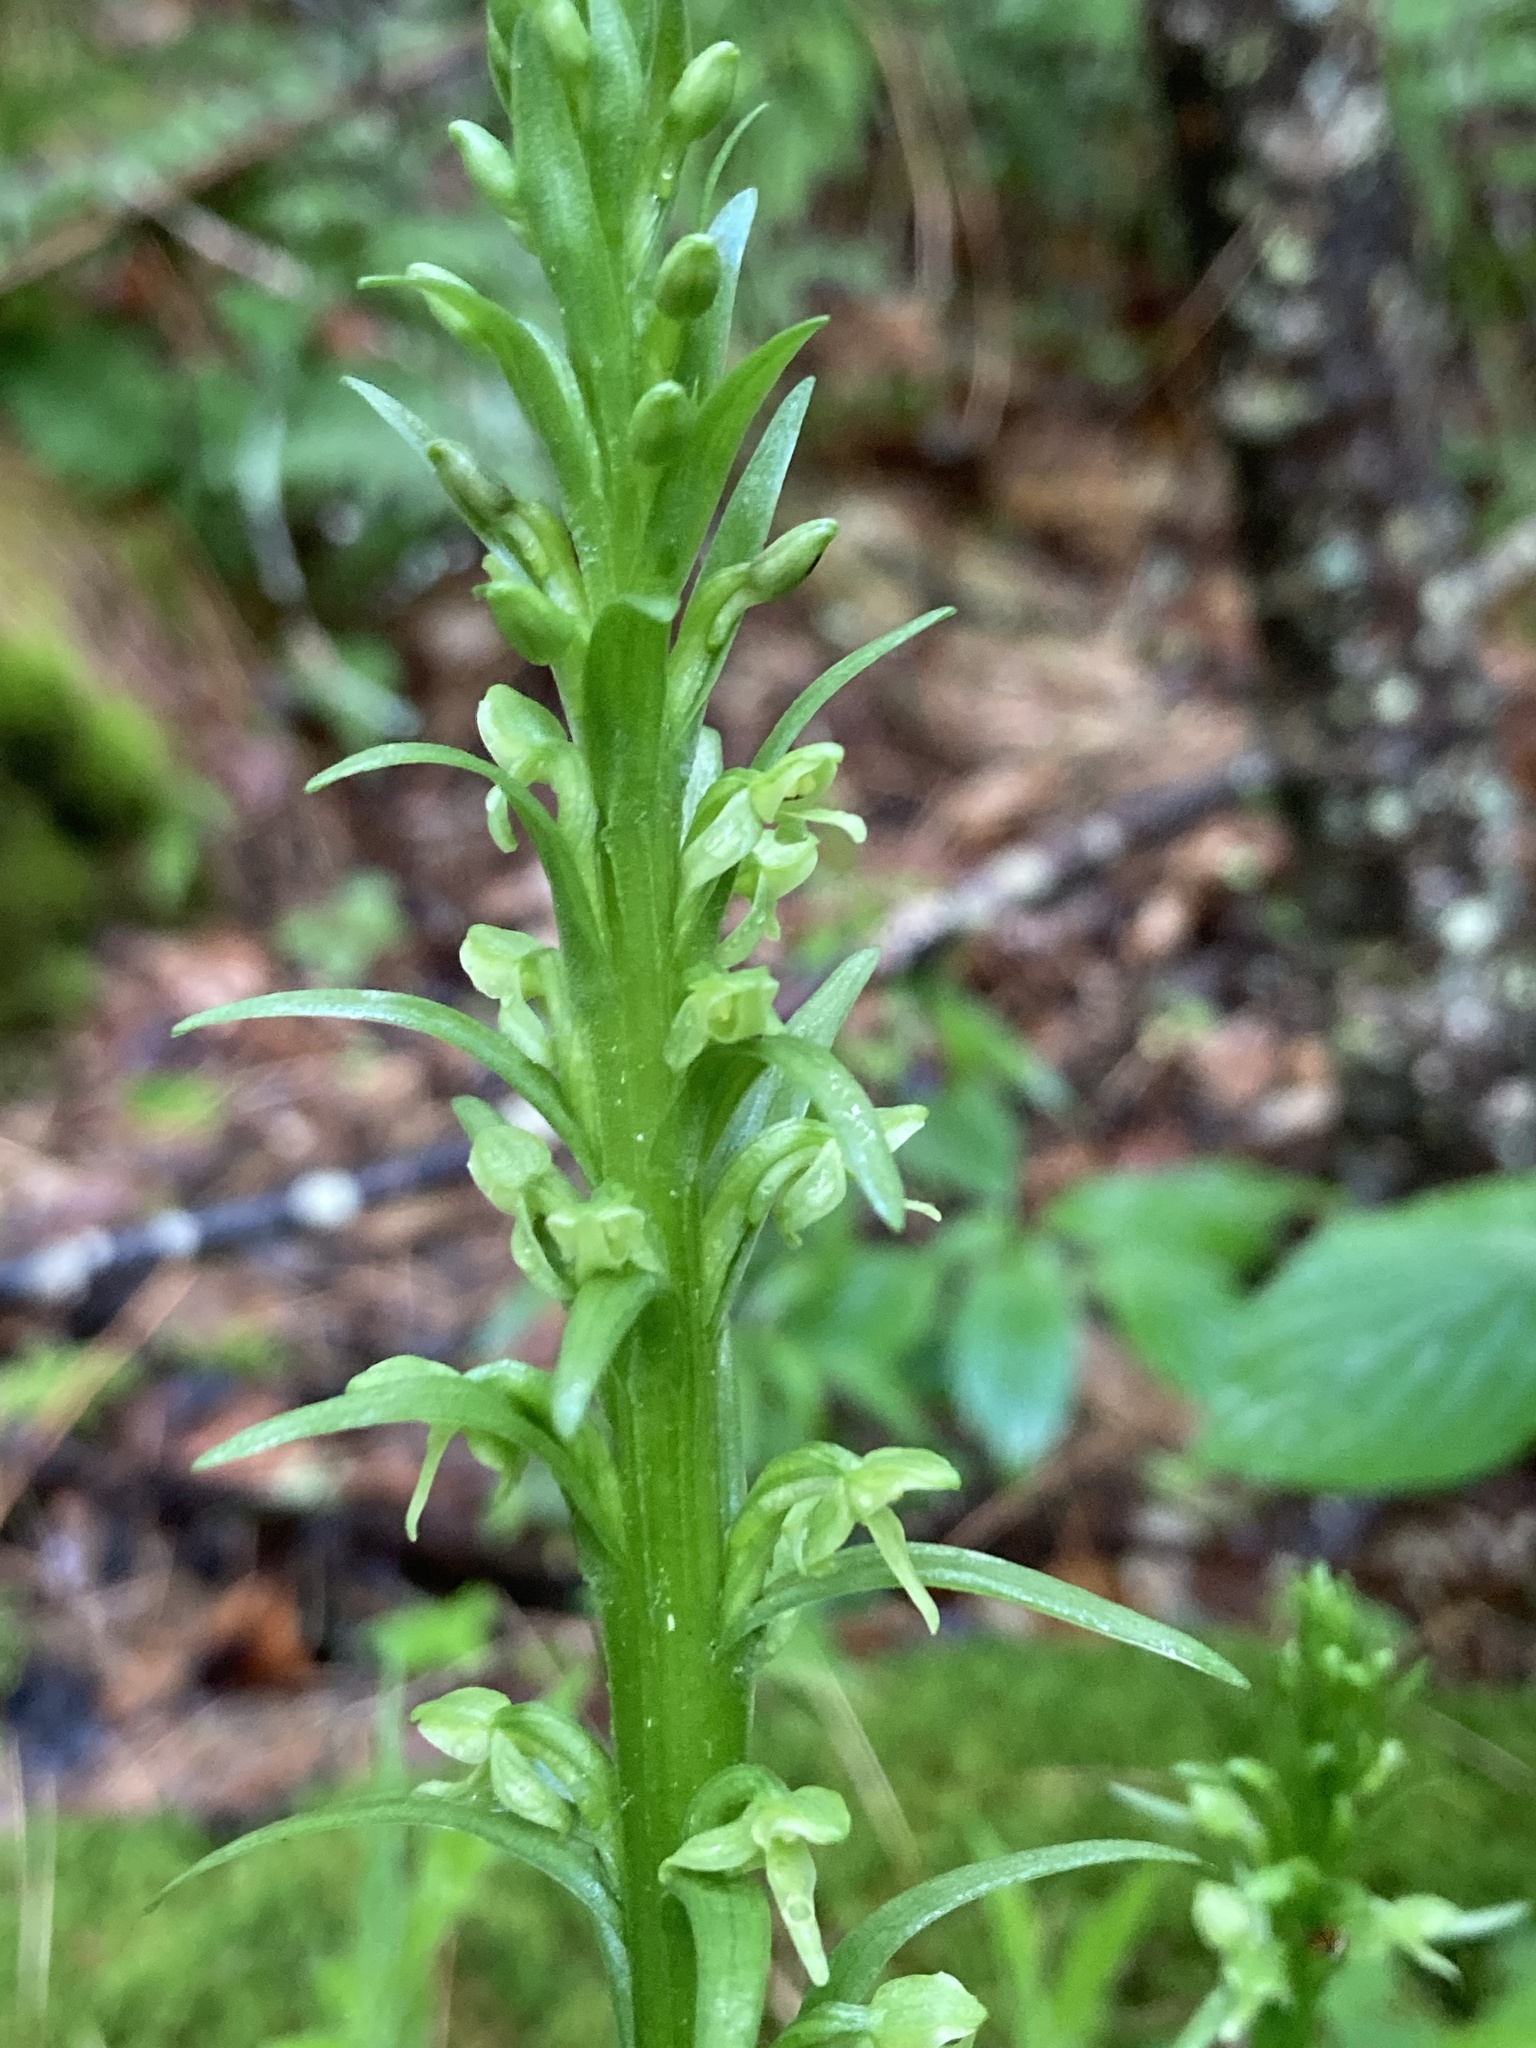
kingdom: Plantae
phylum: Tracheophyta
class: Liliopsida
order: Asparagales
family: Orchidaceae
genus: Platanthera
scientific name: Platanthera huronensis
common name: Fragrant green orchid
